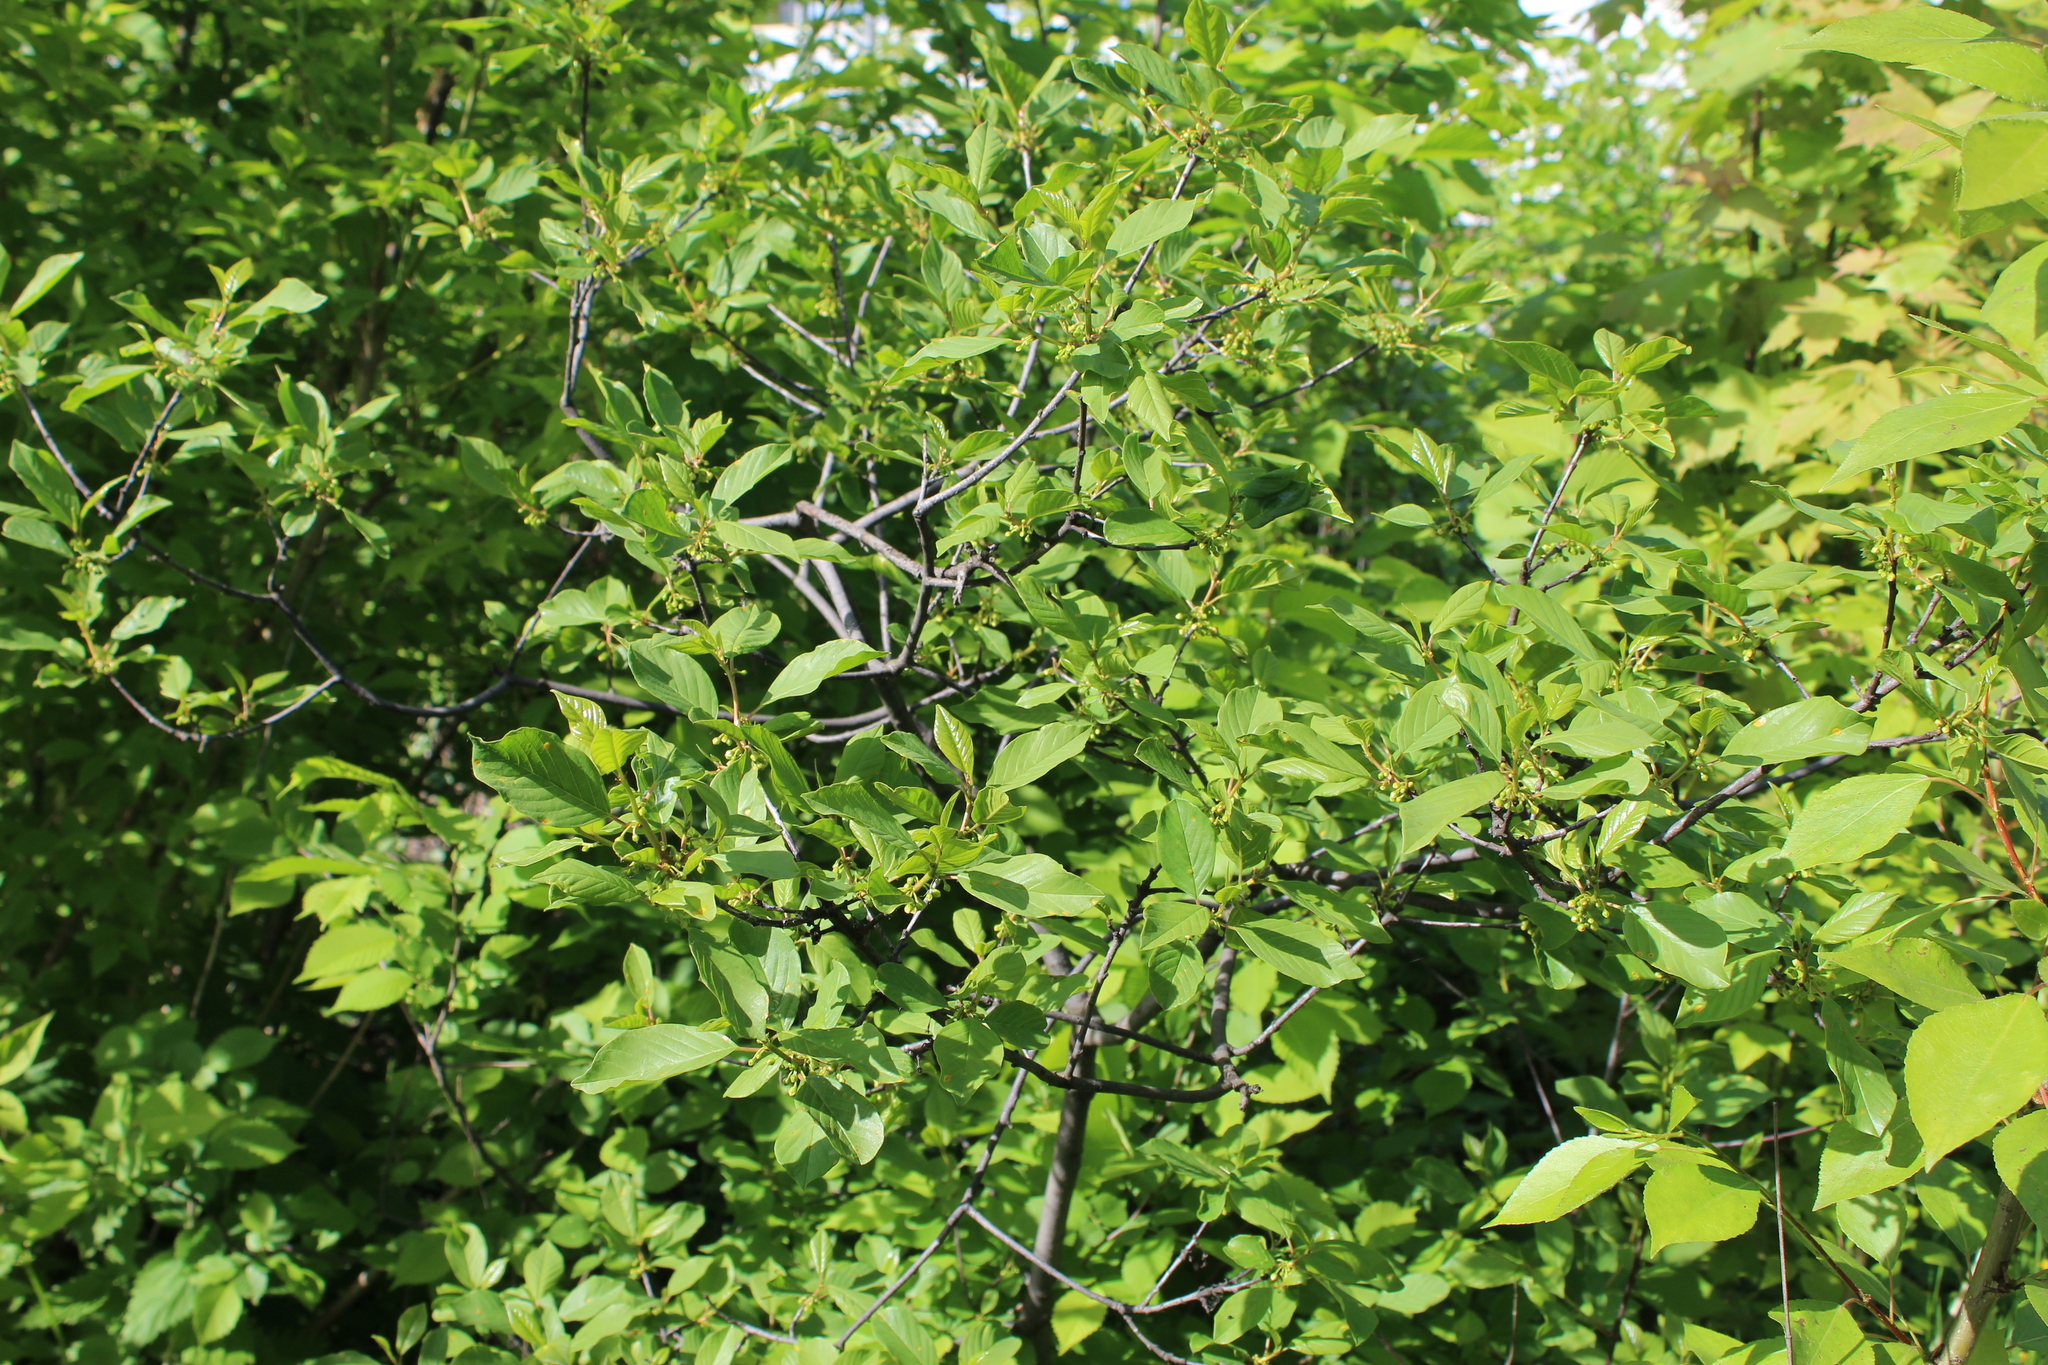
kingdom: Plantae
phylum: Tracheophyta
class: Magnoliopsida
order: Rosales
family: Rhamnaceae
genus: Frangula
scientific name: Frangula alnus
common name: Alder buckthorn
